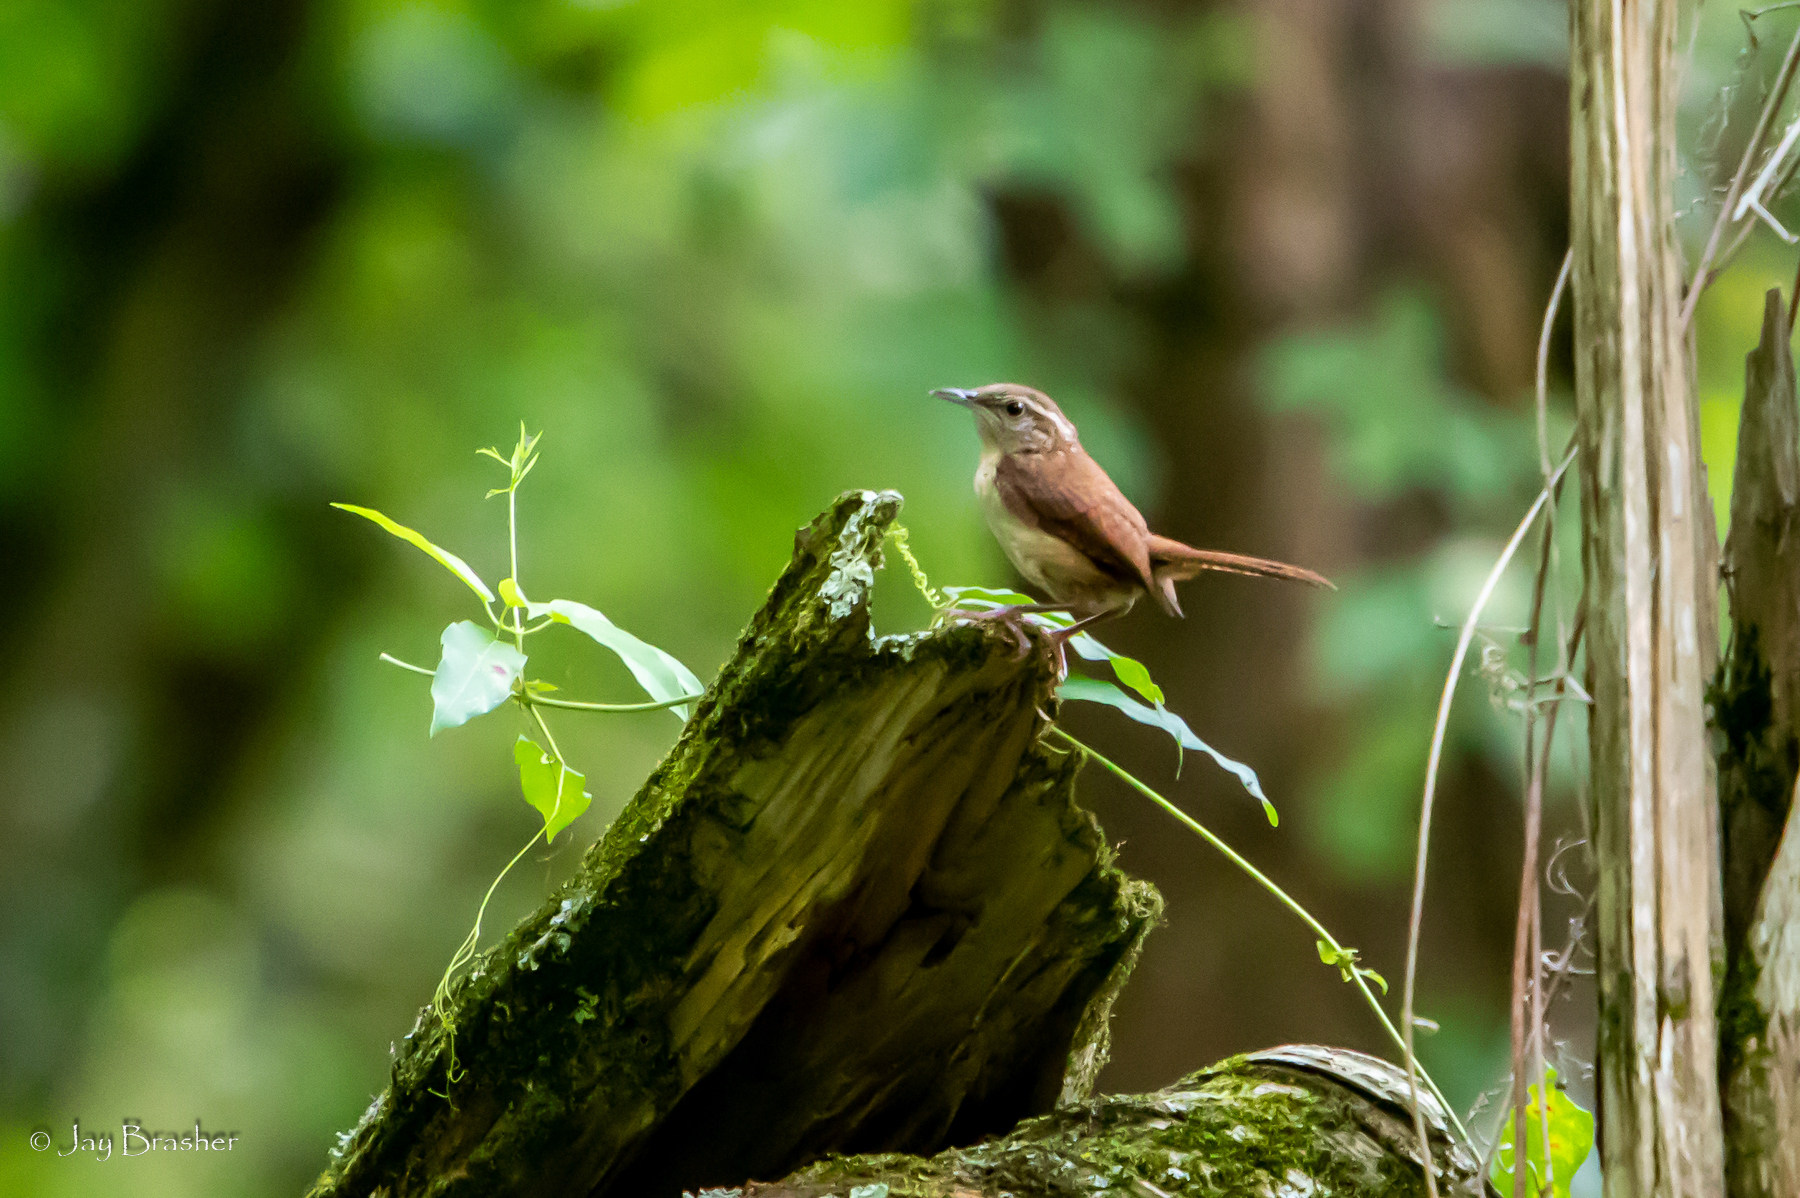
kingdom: Animalia
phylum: Chordata
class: Aves
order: Passeriformes
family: Troglodytidae
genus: Thryothorus
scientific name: Thryothorus ludovicianus
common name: Carolina wren
